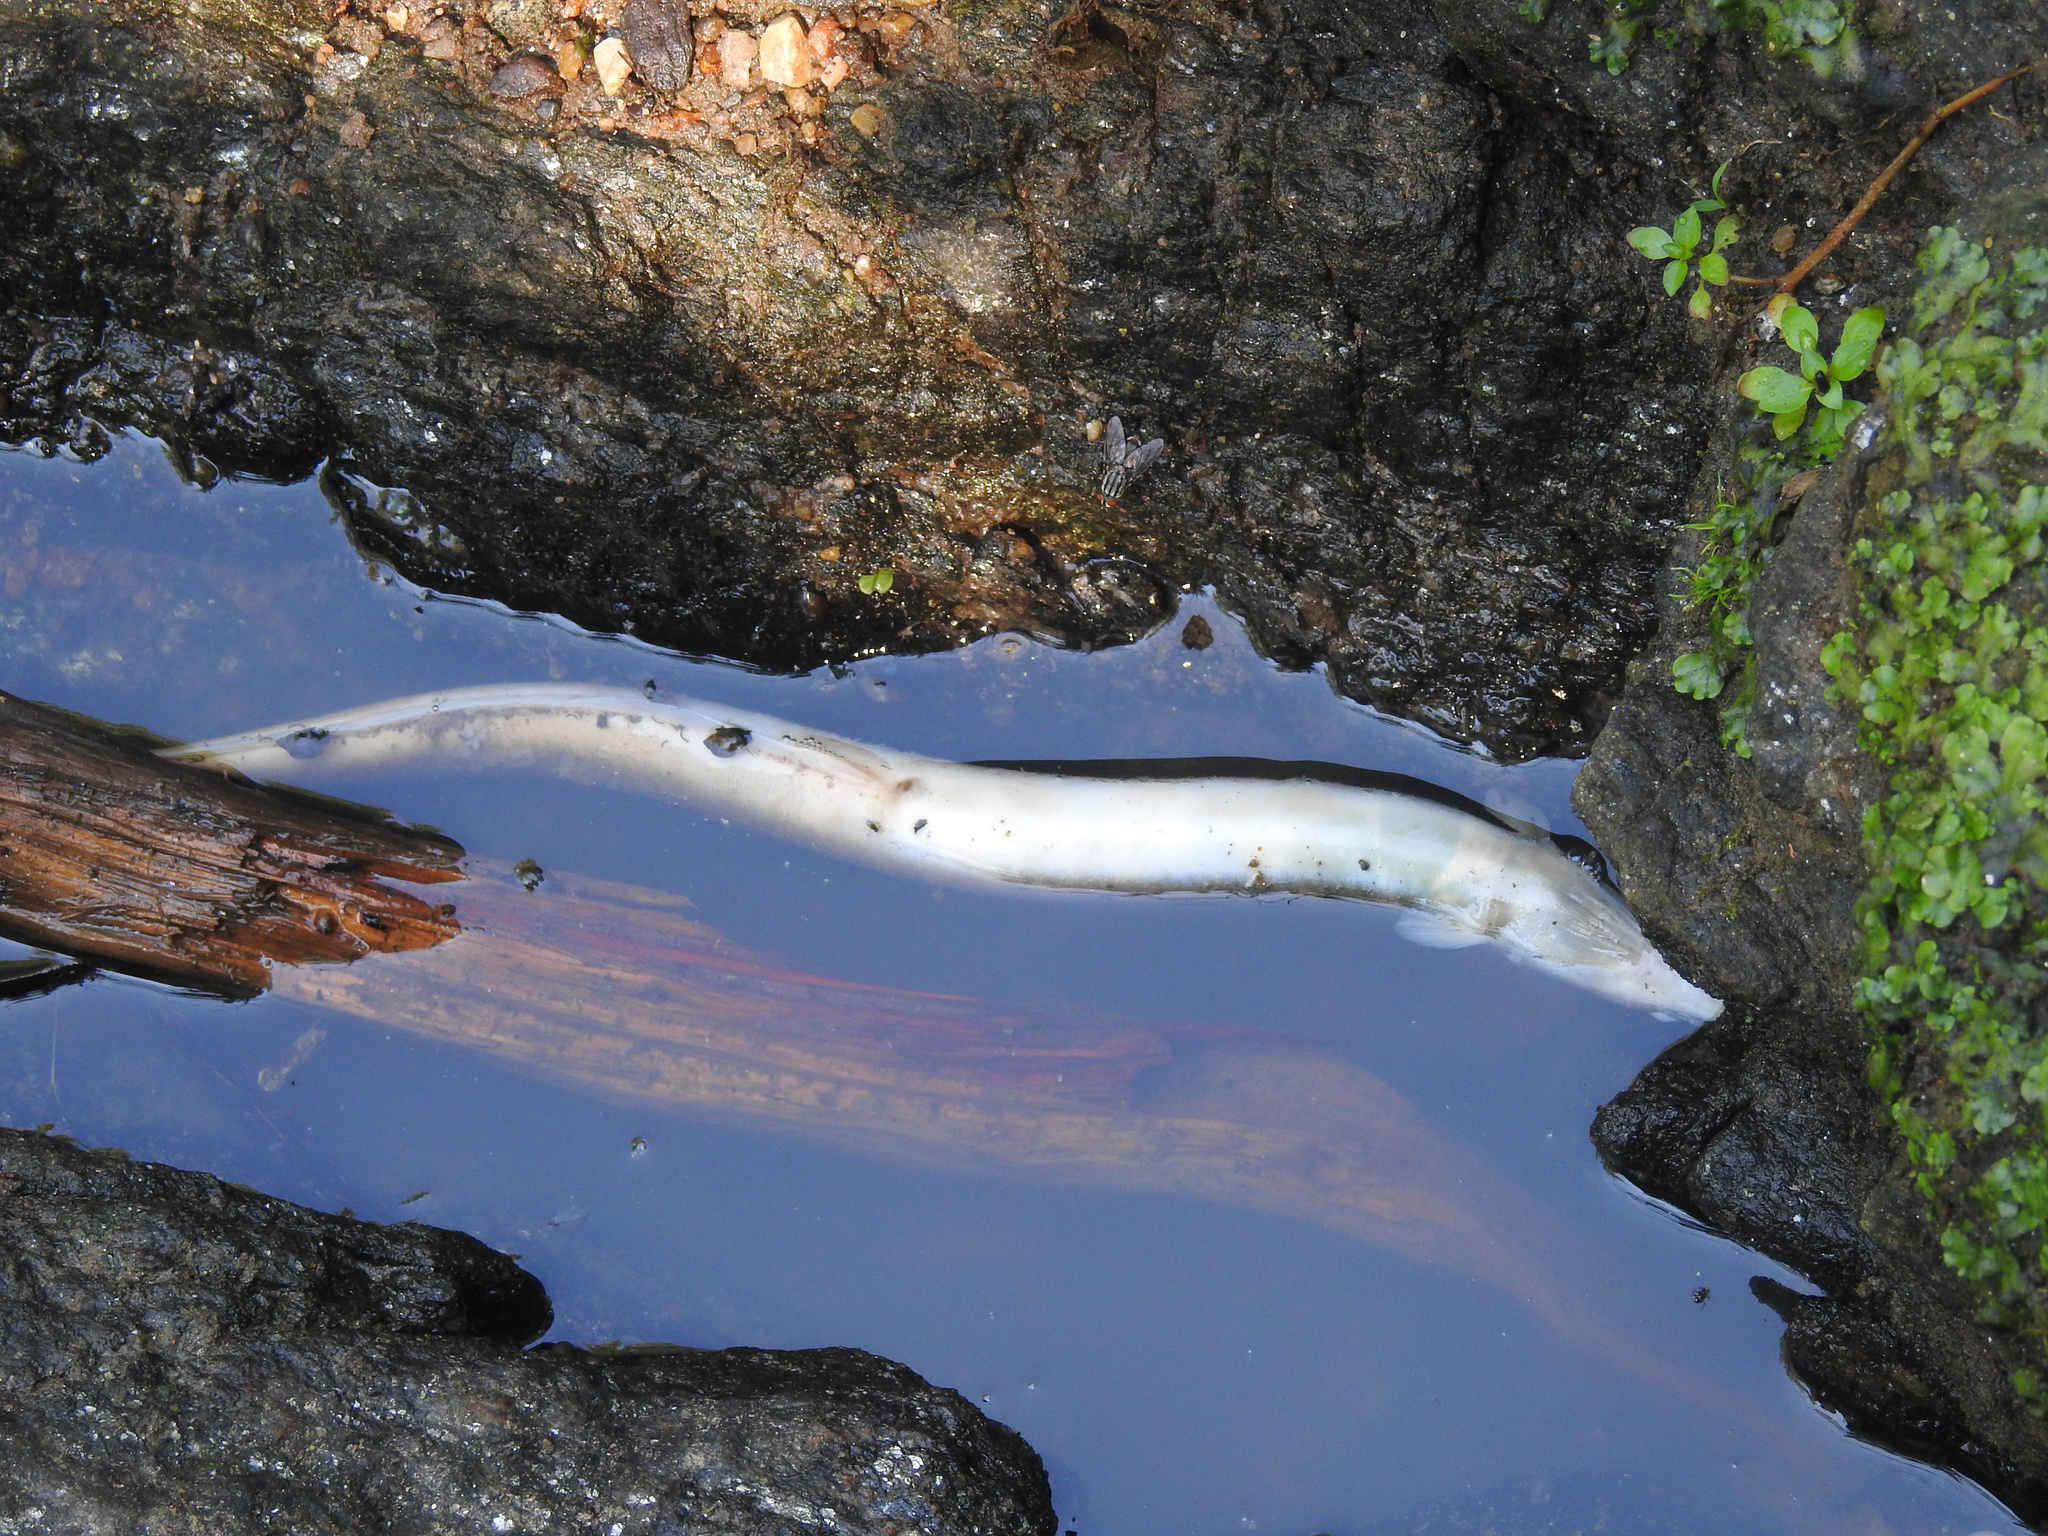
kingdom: Animalia
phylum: Chordata
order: Anguilliformes
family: Anguillidae
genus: Anguilla
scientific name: Anguilla rostrata
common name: American eel
